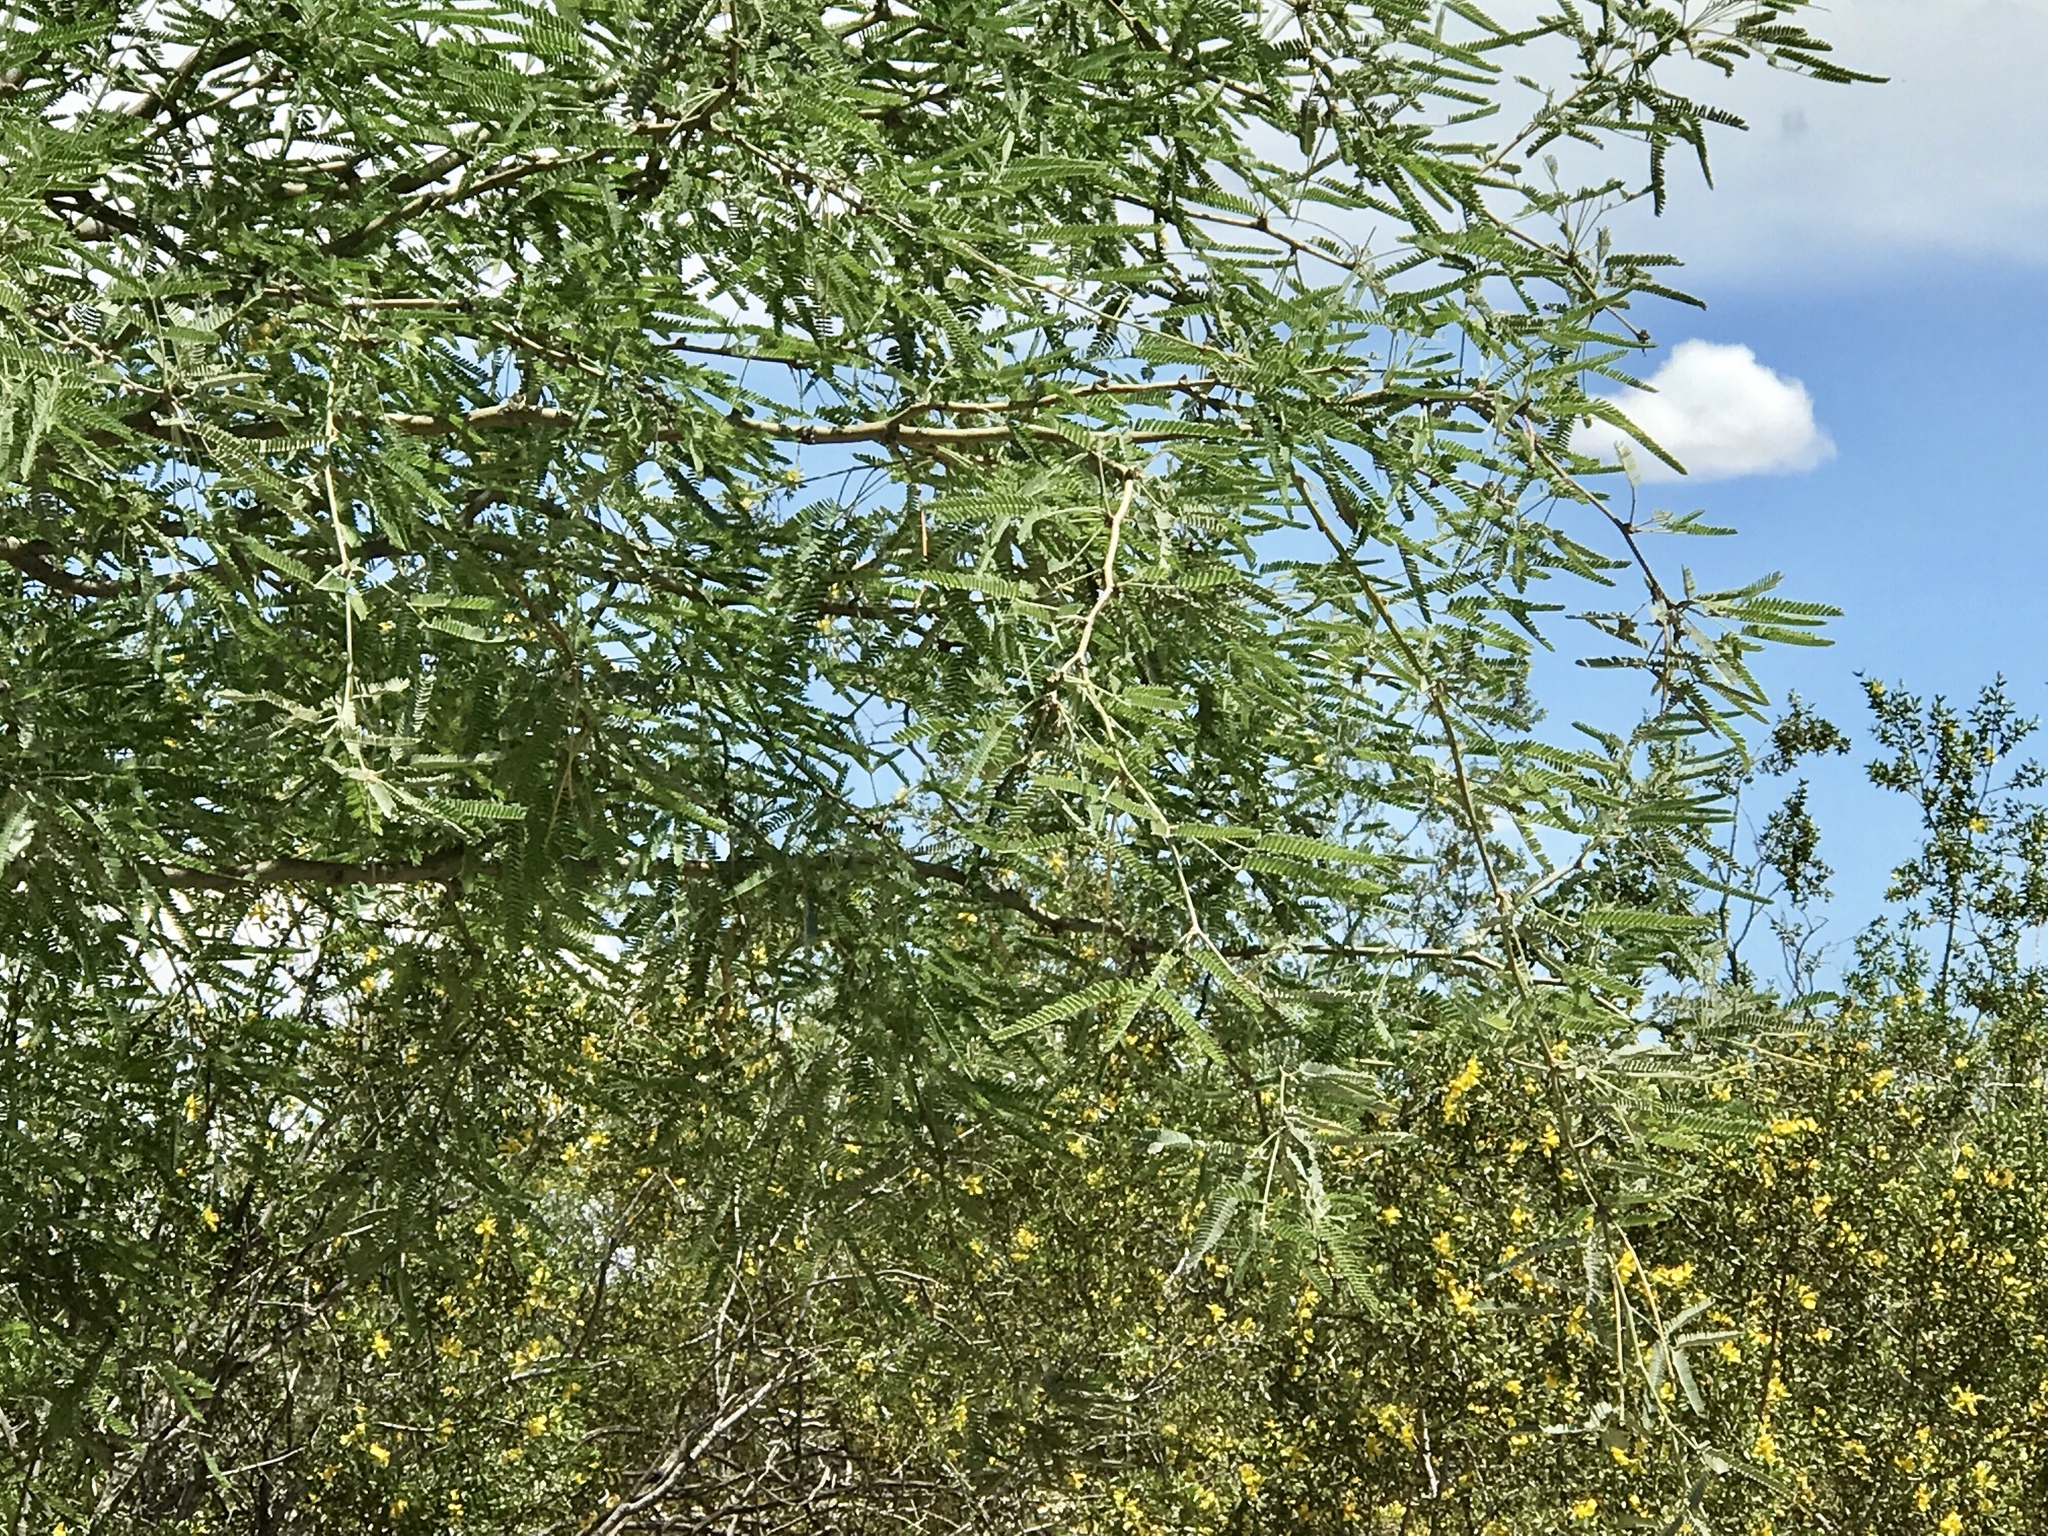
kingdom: Plantae
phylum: Tracheophyta
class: Magnoliopsida
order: Fabales
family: Fabaceae
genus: Prosopis
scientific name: Prosopis velutina
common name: Velvet mesquite
